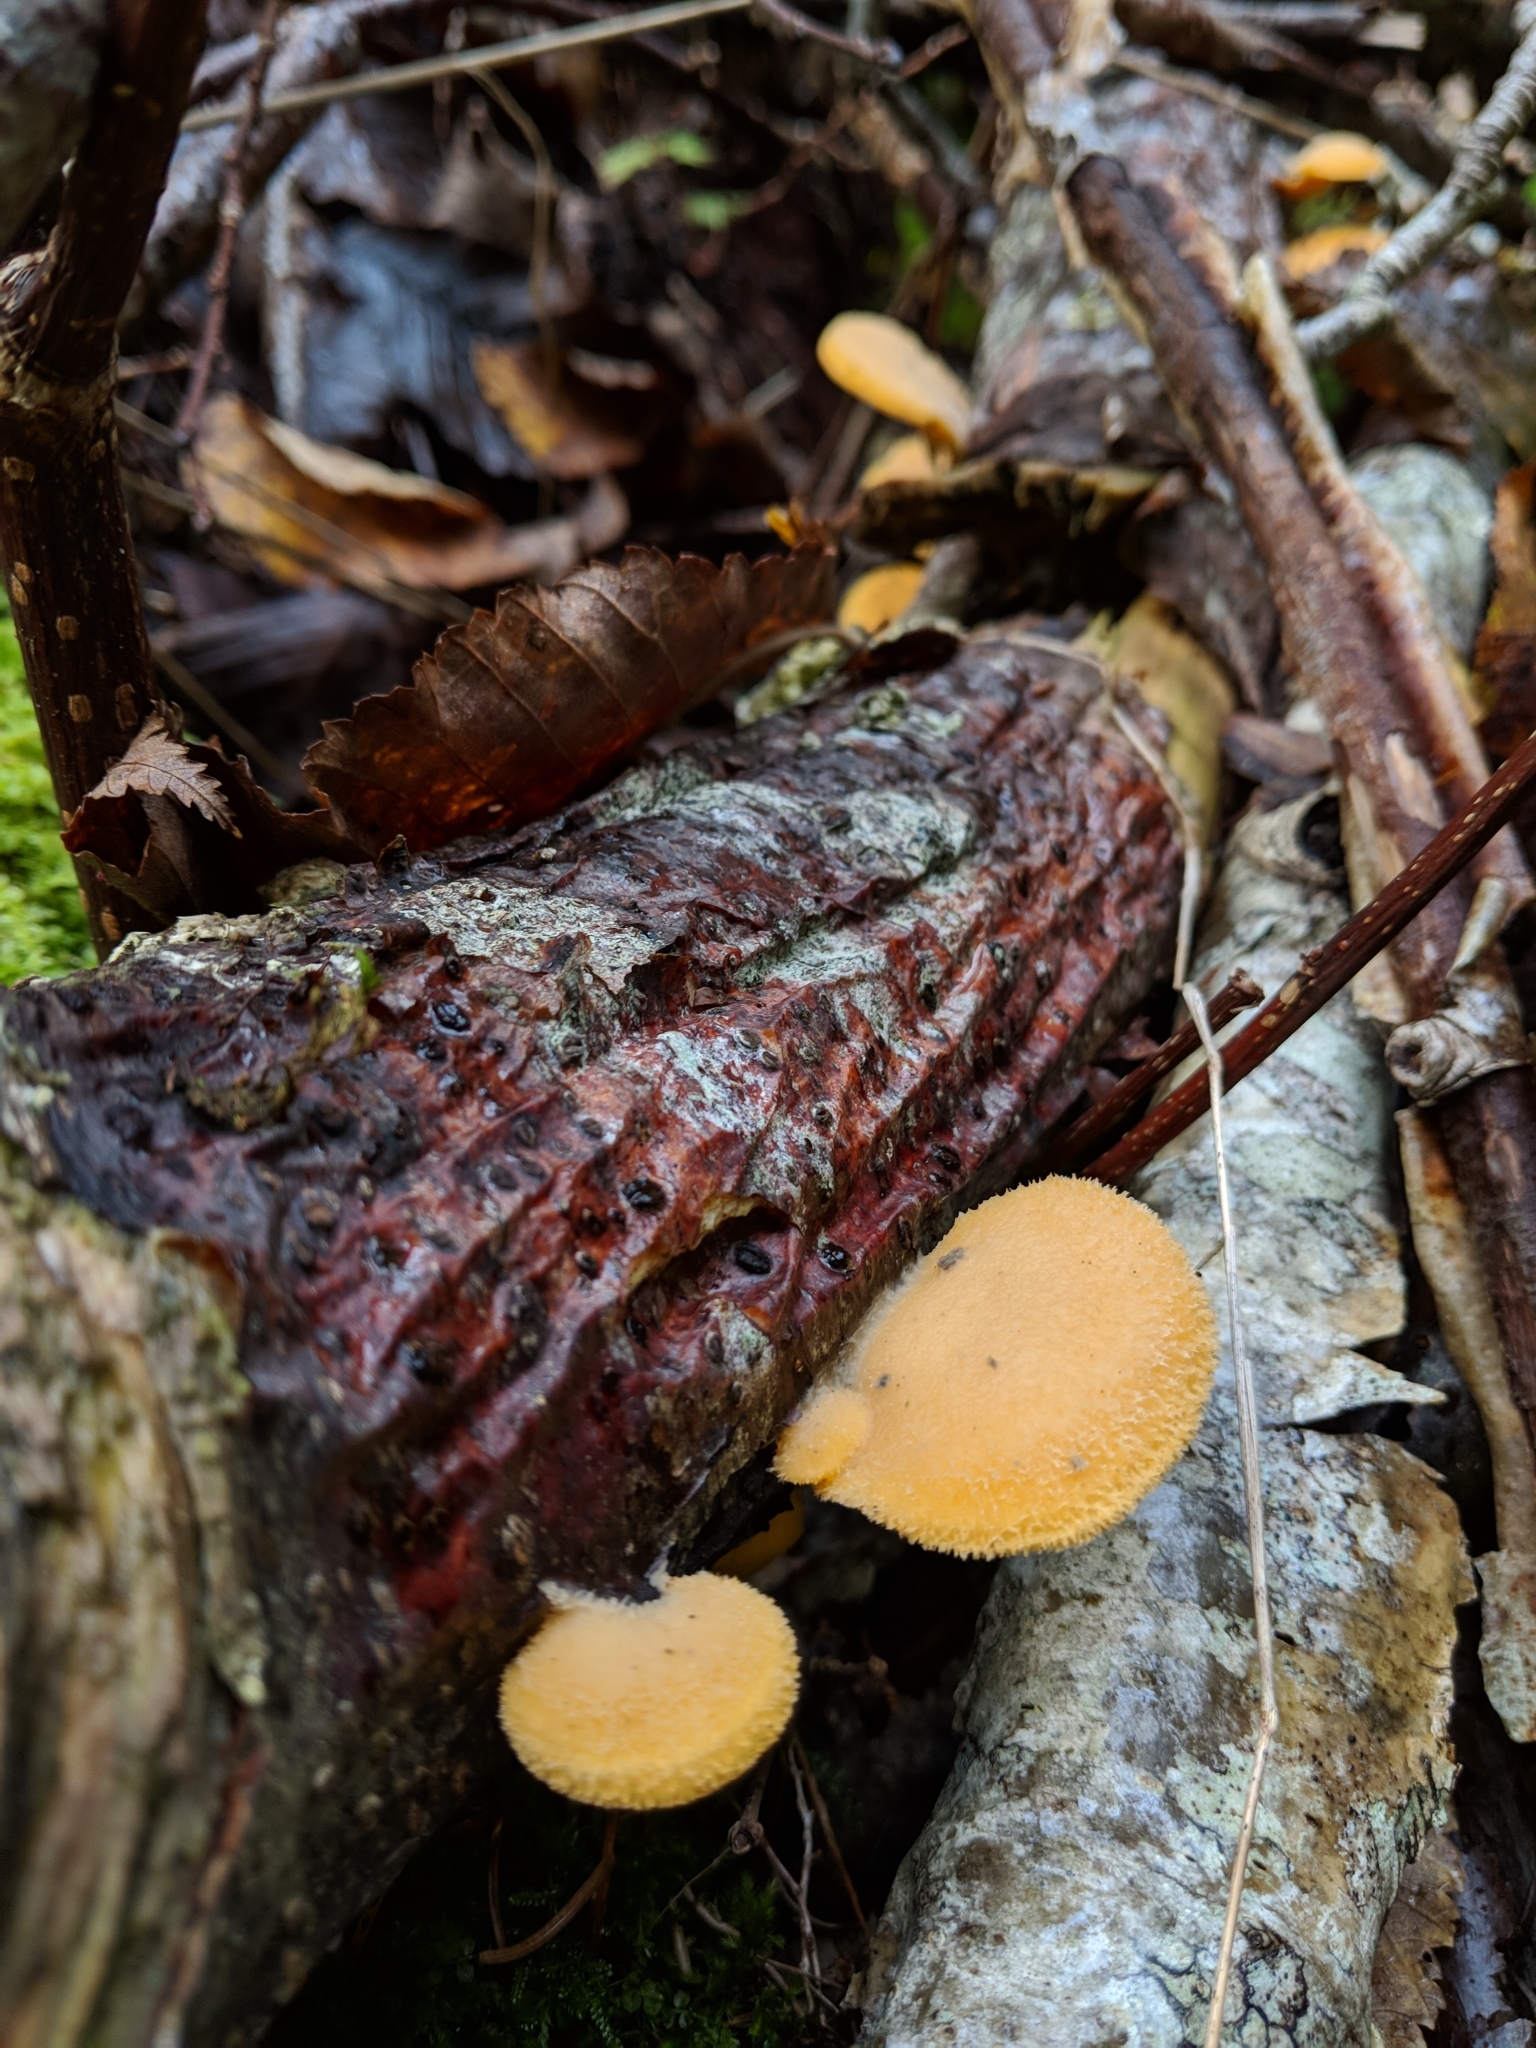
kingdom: Fungi
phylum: Basidiomycota
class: Agaricomycetes
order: Agaricales
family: Phyllotopsidaceae
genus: Phyllotopsis
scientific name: Phyllotopsis nidulans
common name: Orange mock oyster
